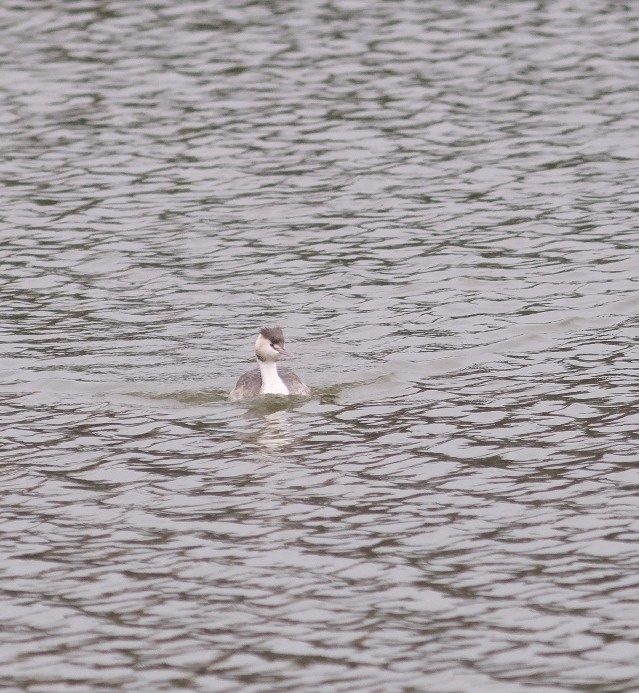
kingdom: Animalia
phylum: Chordata
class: Aves
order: Podicipediformes
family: Podicipedidae
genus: Podiceps
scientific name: Podiceps cristatus
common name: Great crested grebe
